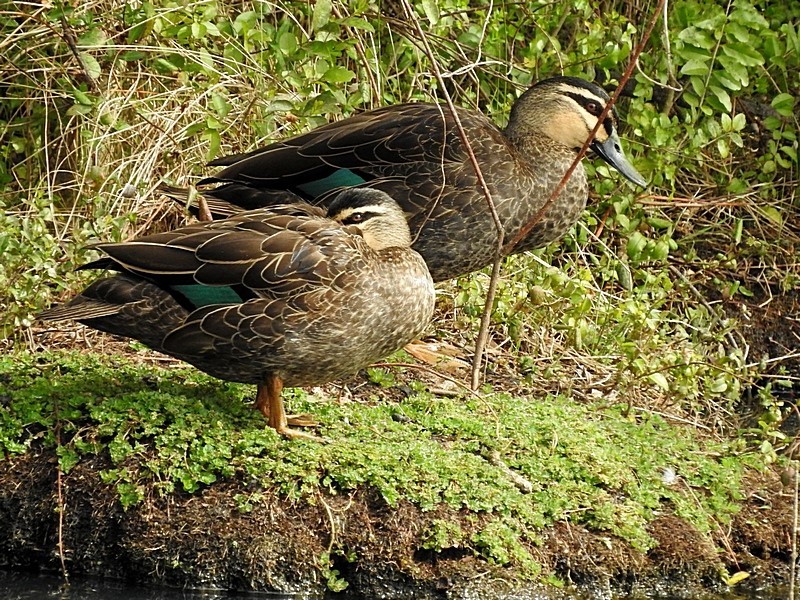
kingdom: Animalia
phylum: Chordata
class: Aves
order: Anseriformes
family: Anatidae
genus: Anas
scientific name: Anas
